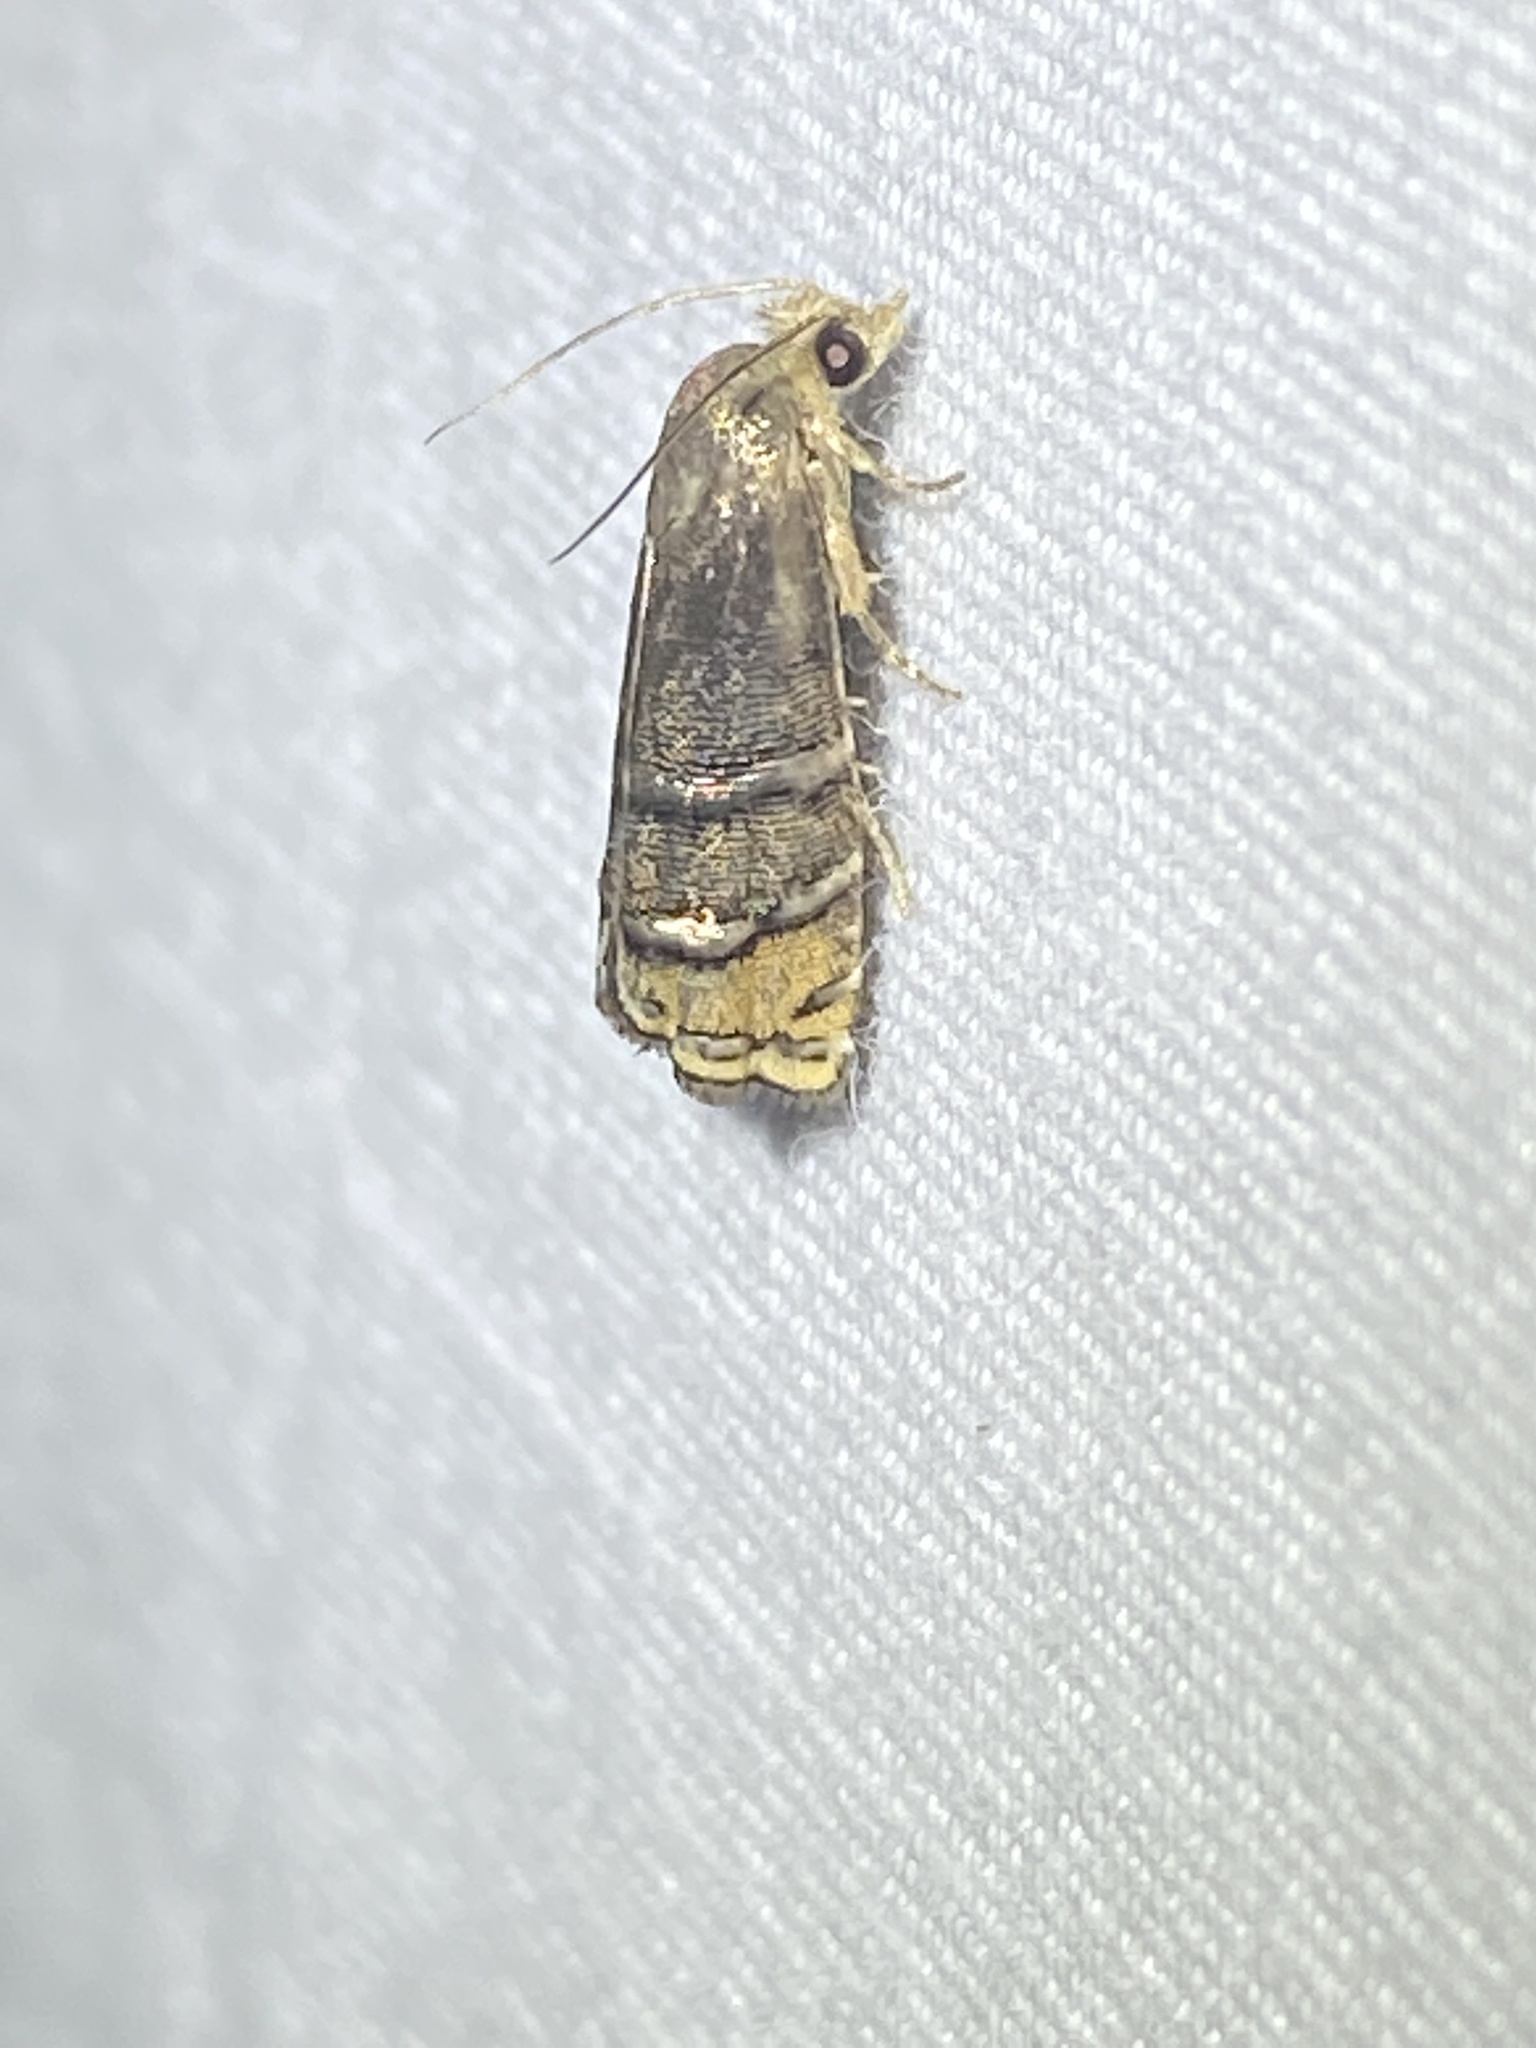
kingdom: Animalia
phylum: Arthropoda
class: Insecta
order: Lepidoptera
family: Tortricidae
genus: Cydia
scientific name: Cydia toreuta
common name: Eastern pine seedworm moth
